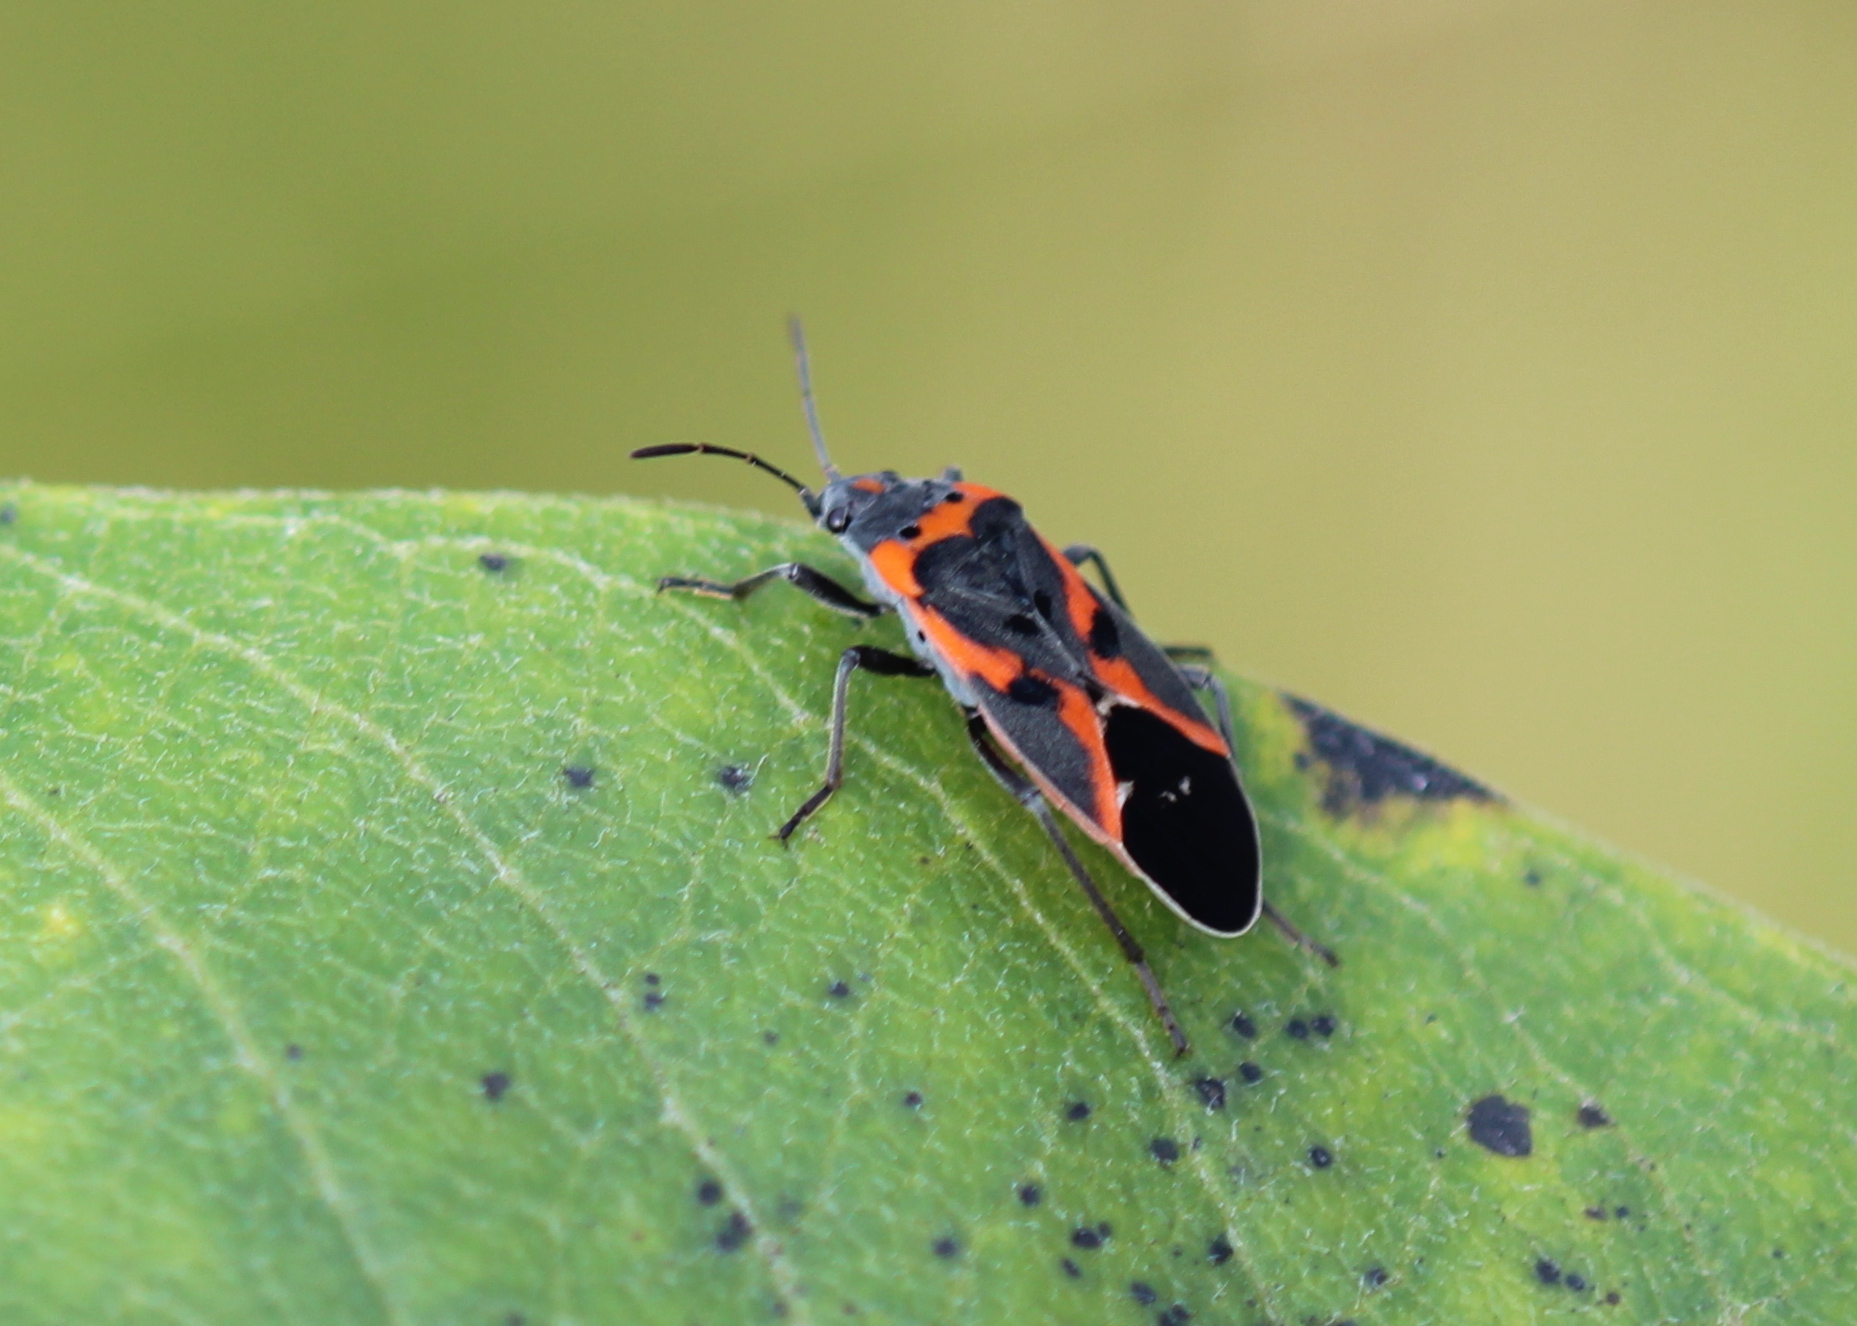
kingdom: Animalia
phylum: Arthropoda
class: Insecta
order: Hemiptera
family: Lygaeidae
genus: Lygaeus
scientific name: Lygaeus kalmii
